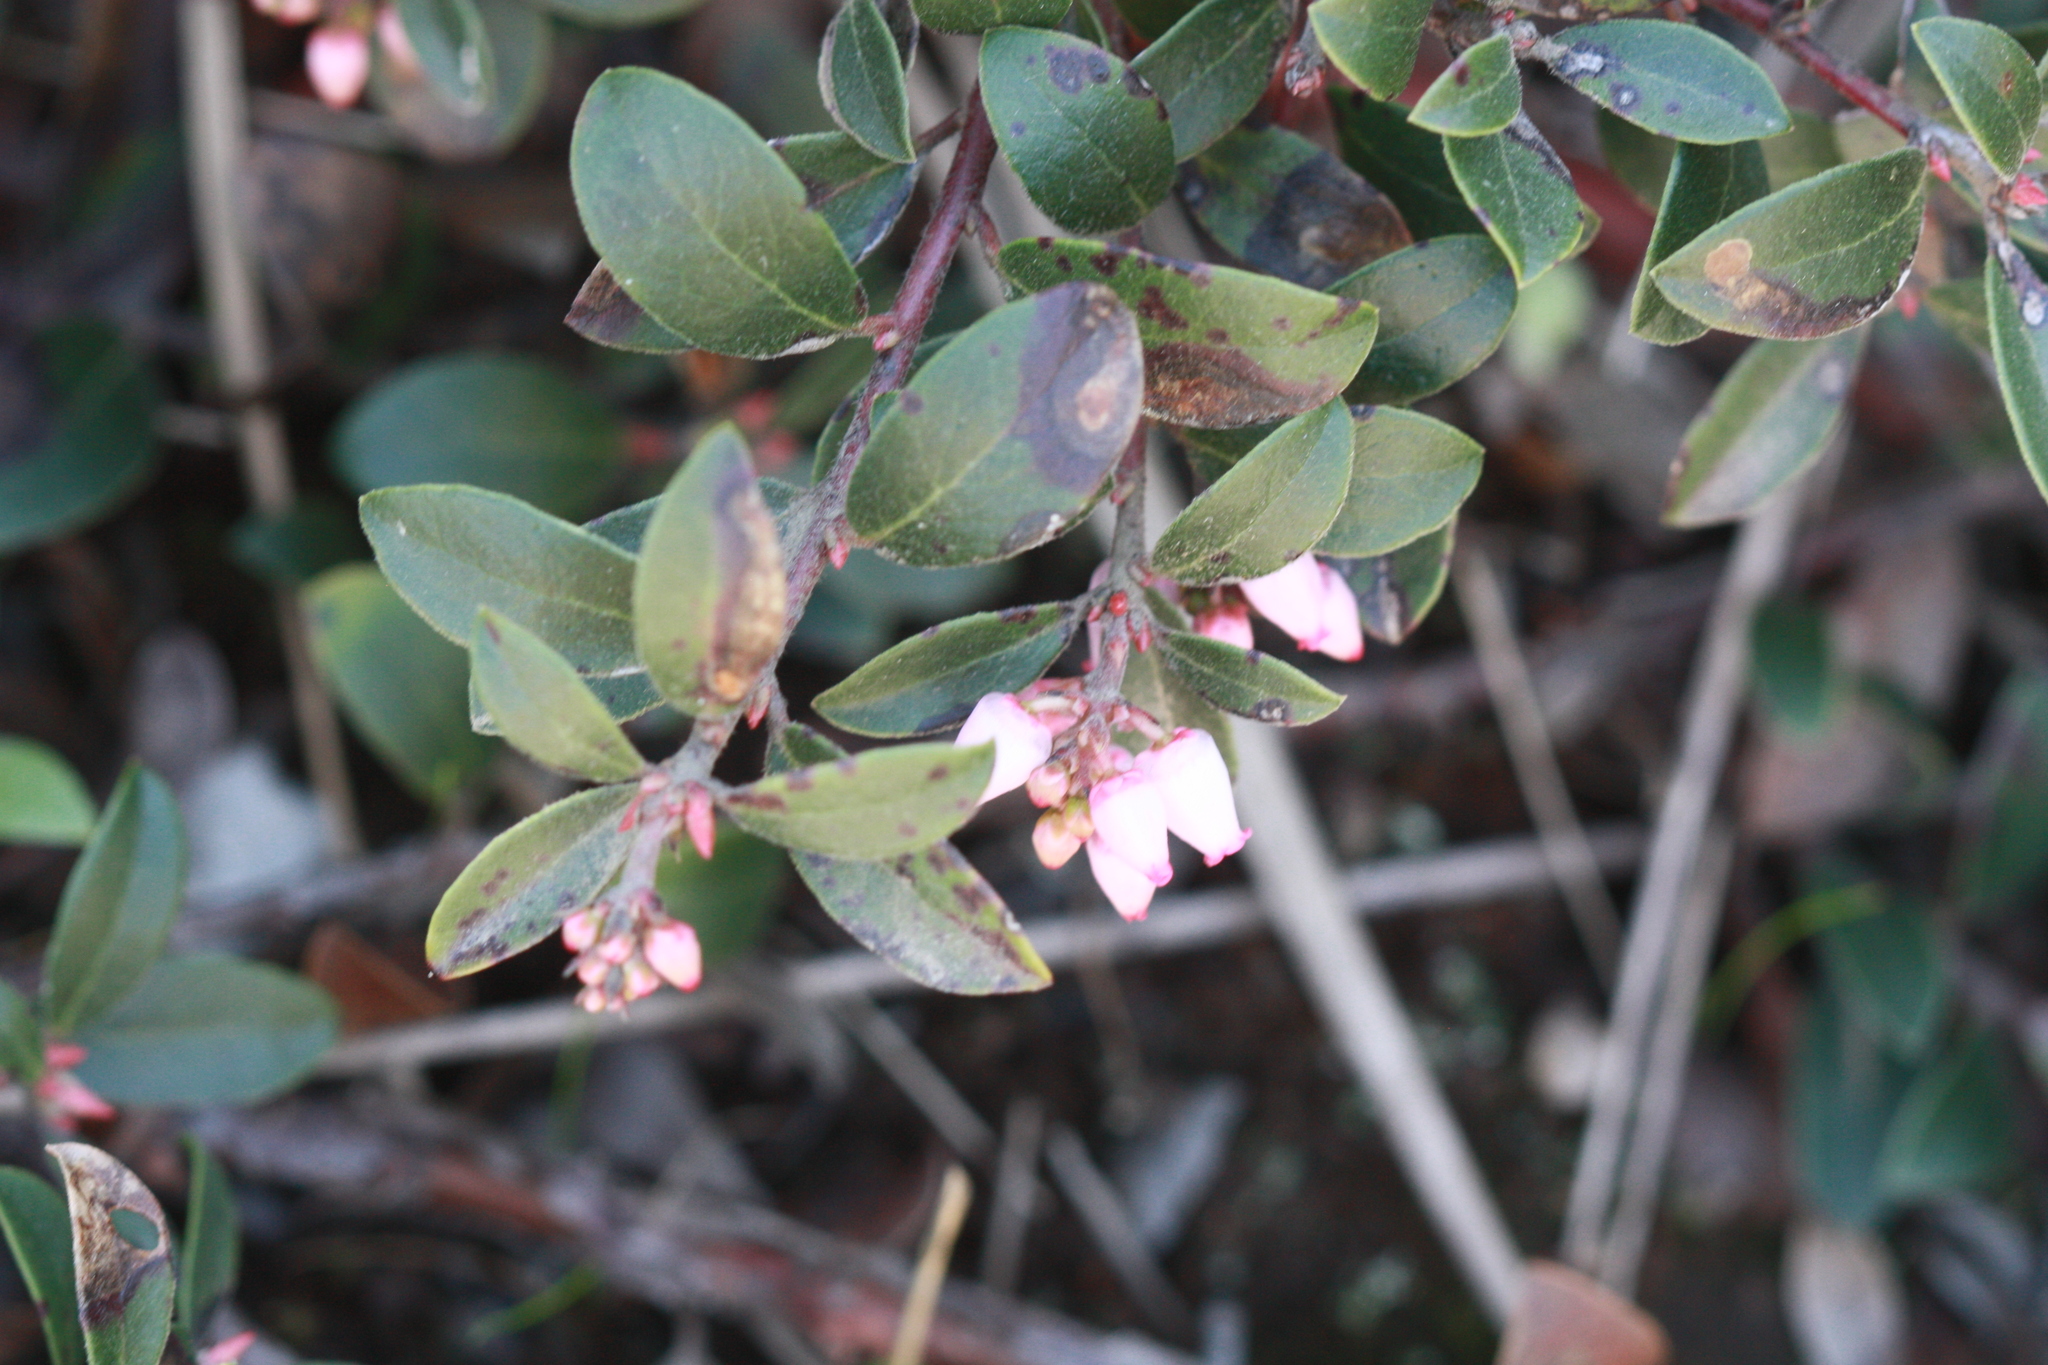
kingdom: Plantae
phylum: Tracheophyta
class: Magnoliopsida
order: Ericales
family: Ericaceae
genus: Arctostaphylos
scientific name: Arctostaphylos uva-ursi
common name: Bearberry
